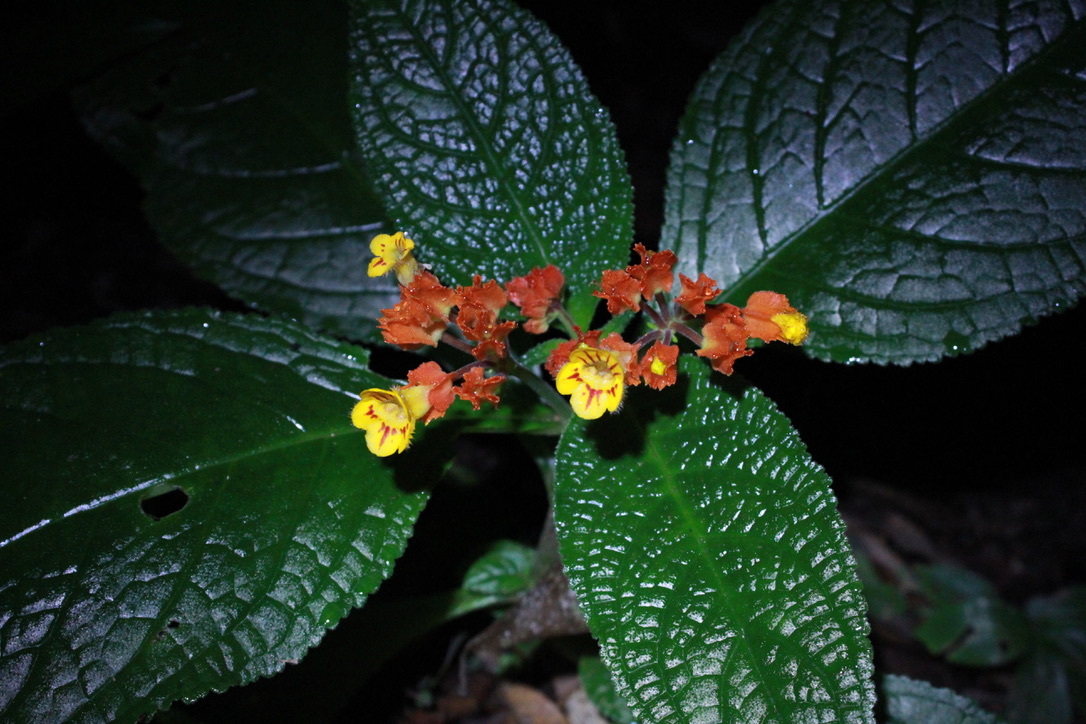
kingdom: Plantae
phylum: Tracheophyta
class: Magnoliopsida
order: Lamiales
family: Gesneriaceae
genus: Chrysothemis
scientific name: Chrysothemis pulchella
